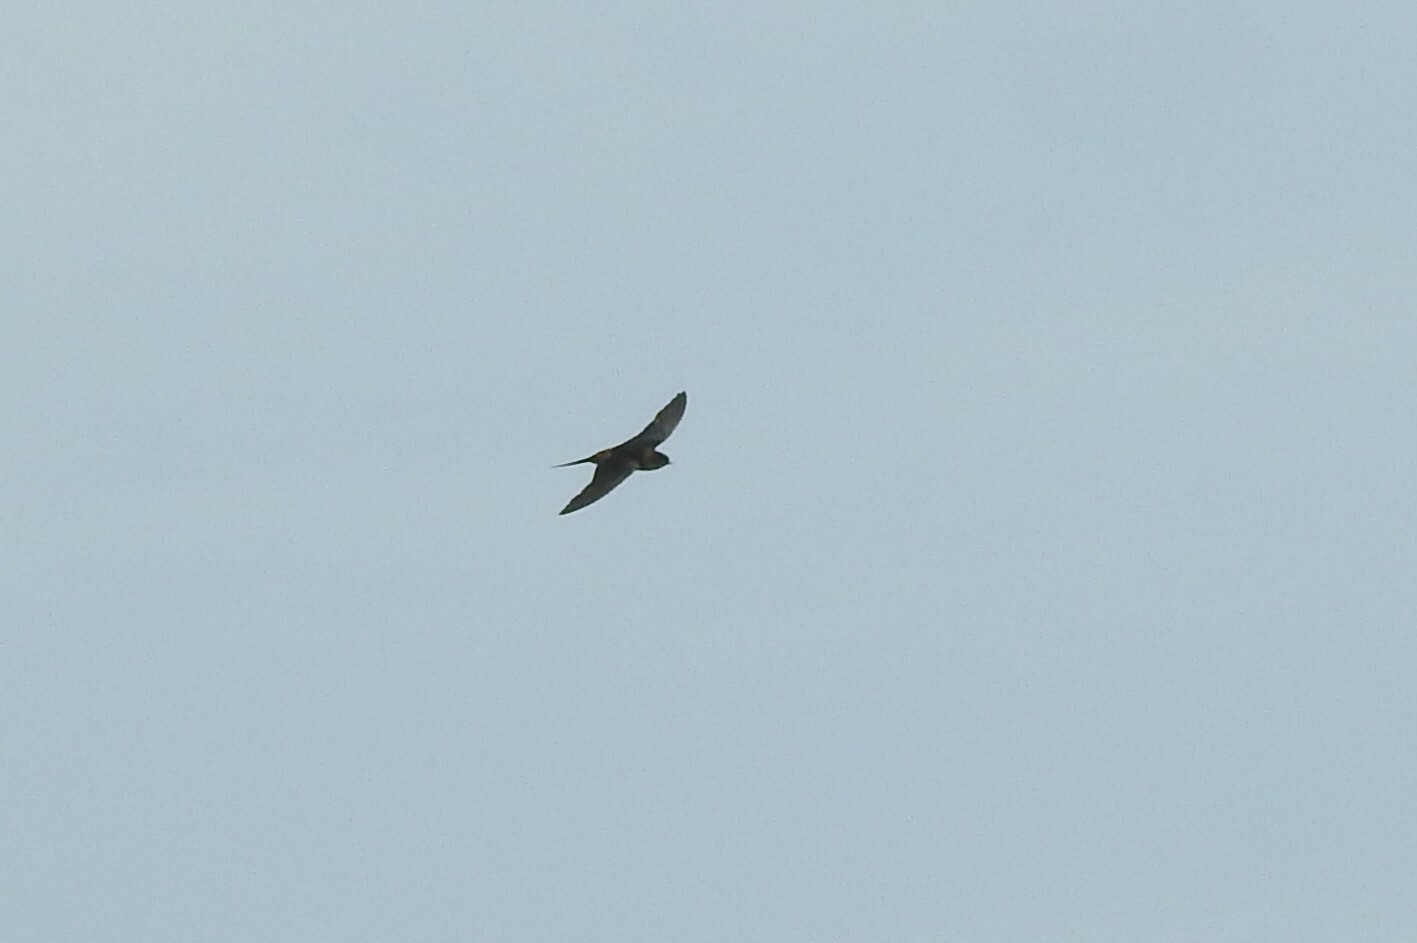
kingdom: Animalia
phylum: Chordata
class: Aves
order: Passeriformes
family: Hirundinidae
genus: Cecropis
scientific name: Cecropis daurica
